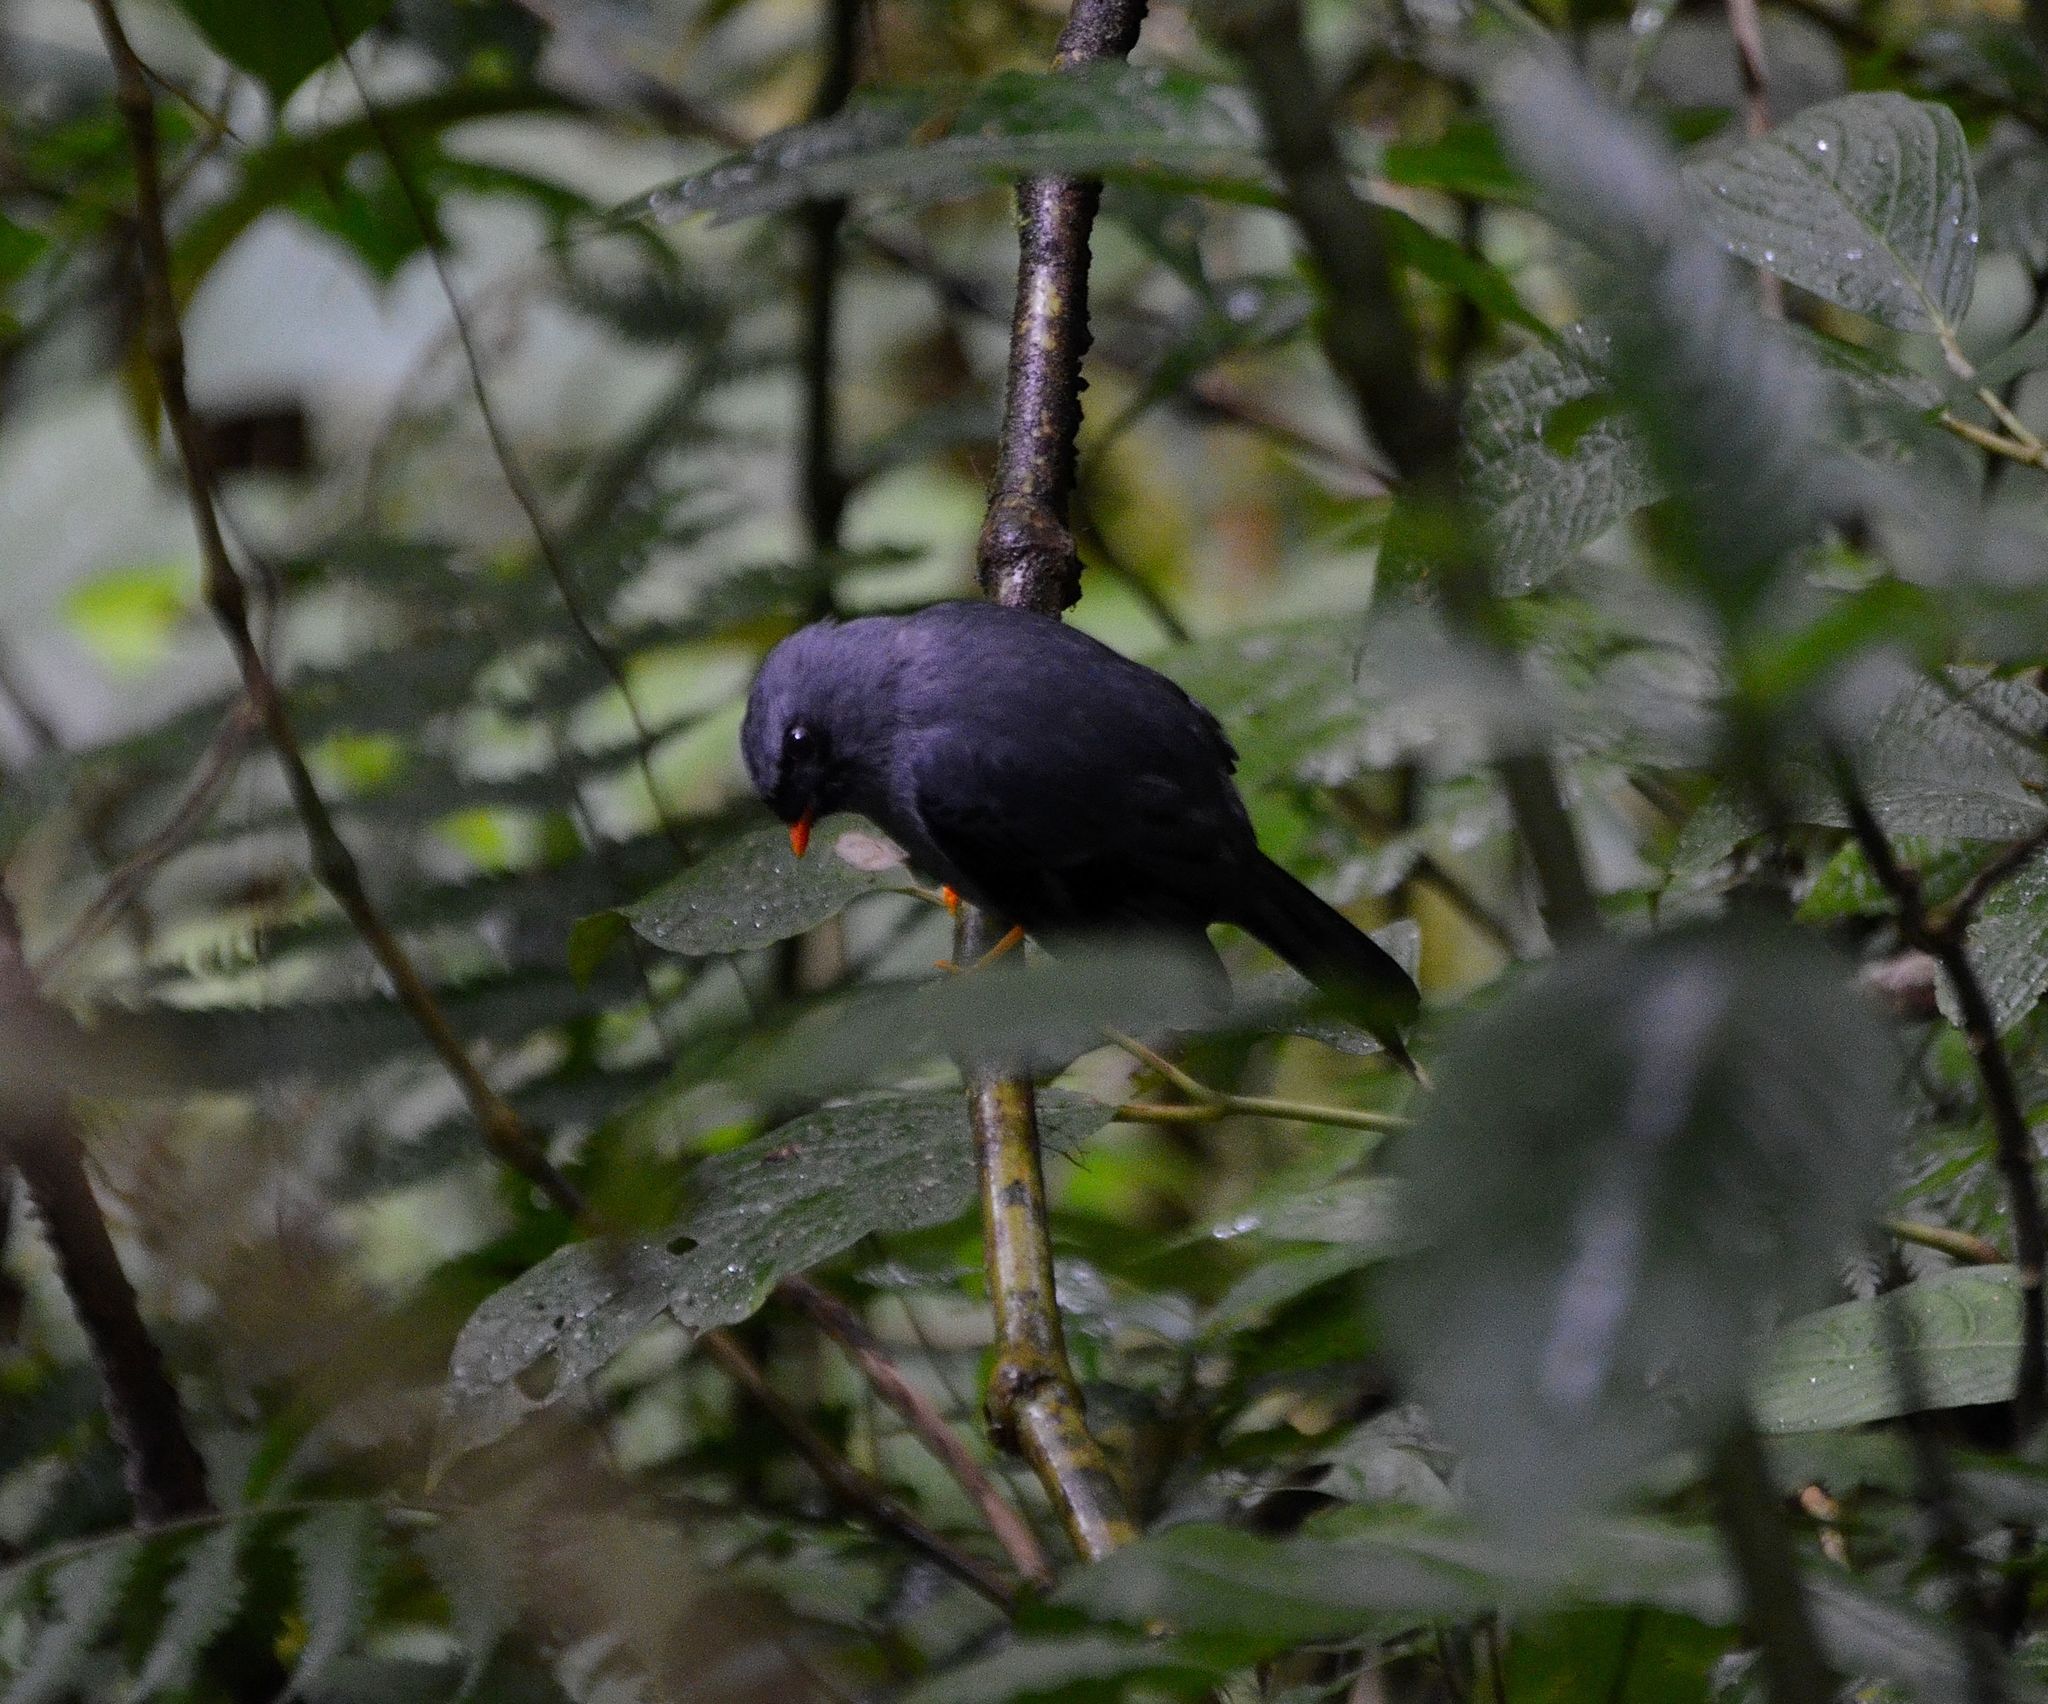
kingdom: Animalia
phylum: Chordata
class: Aves
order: Passeriformes
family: Turdidae
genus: Myadestes
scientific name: Myadestes melanops
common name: Black-faced solitaire
